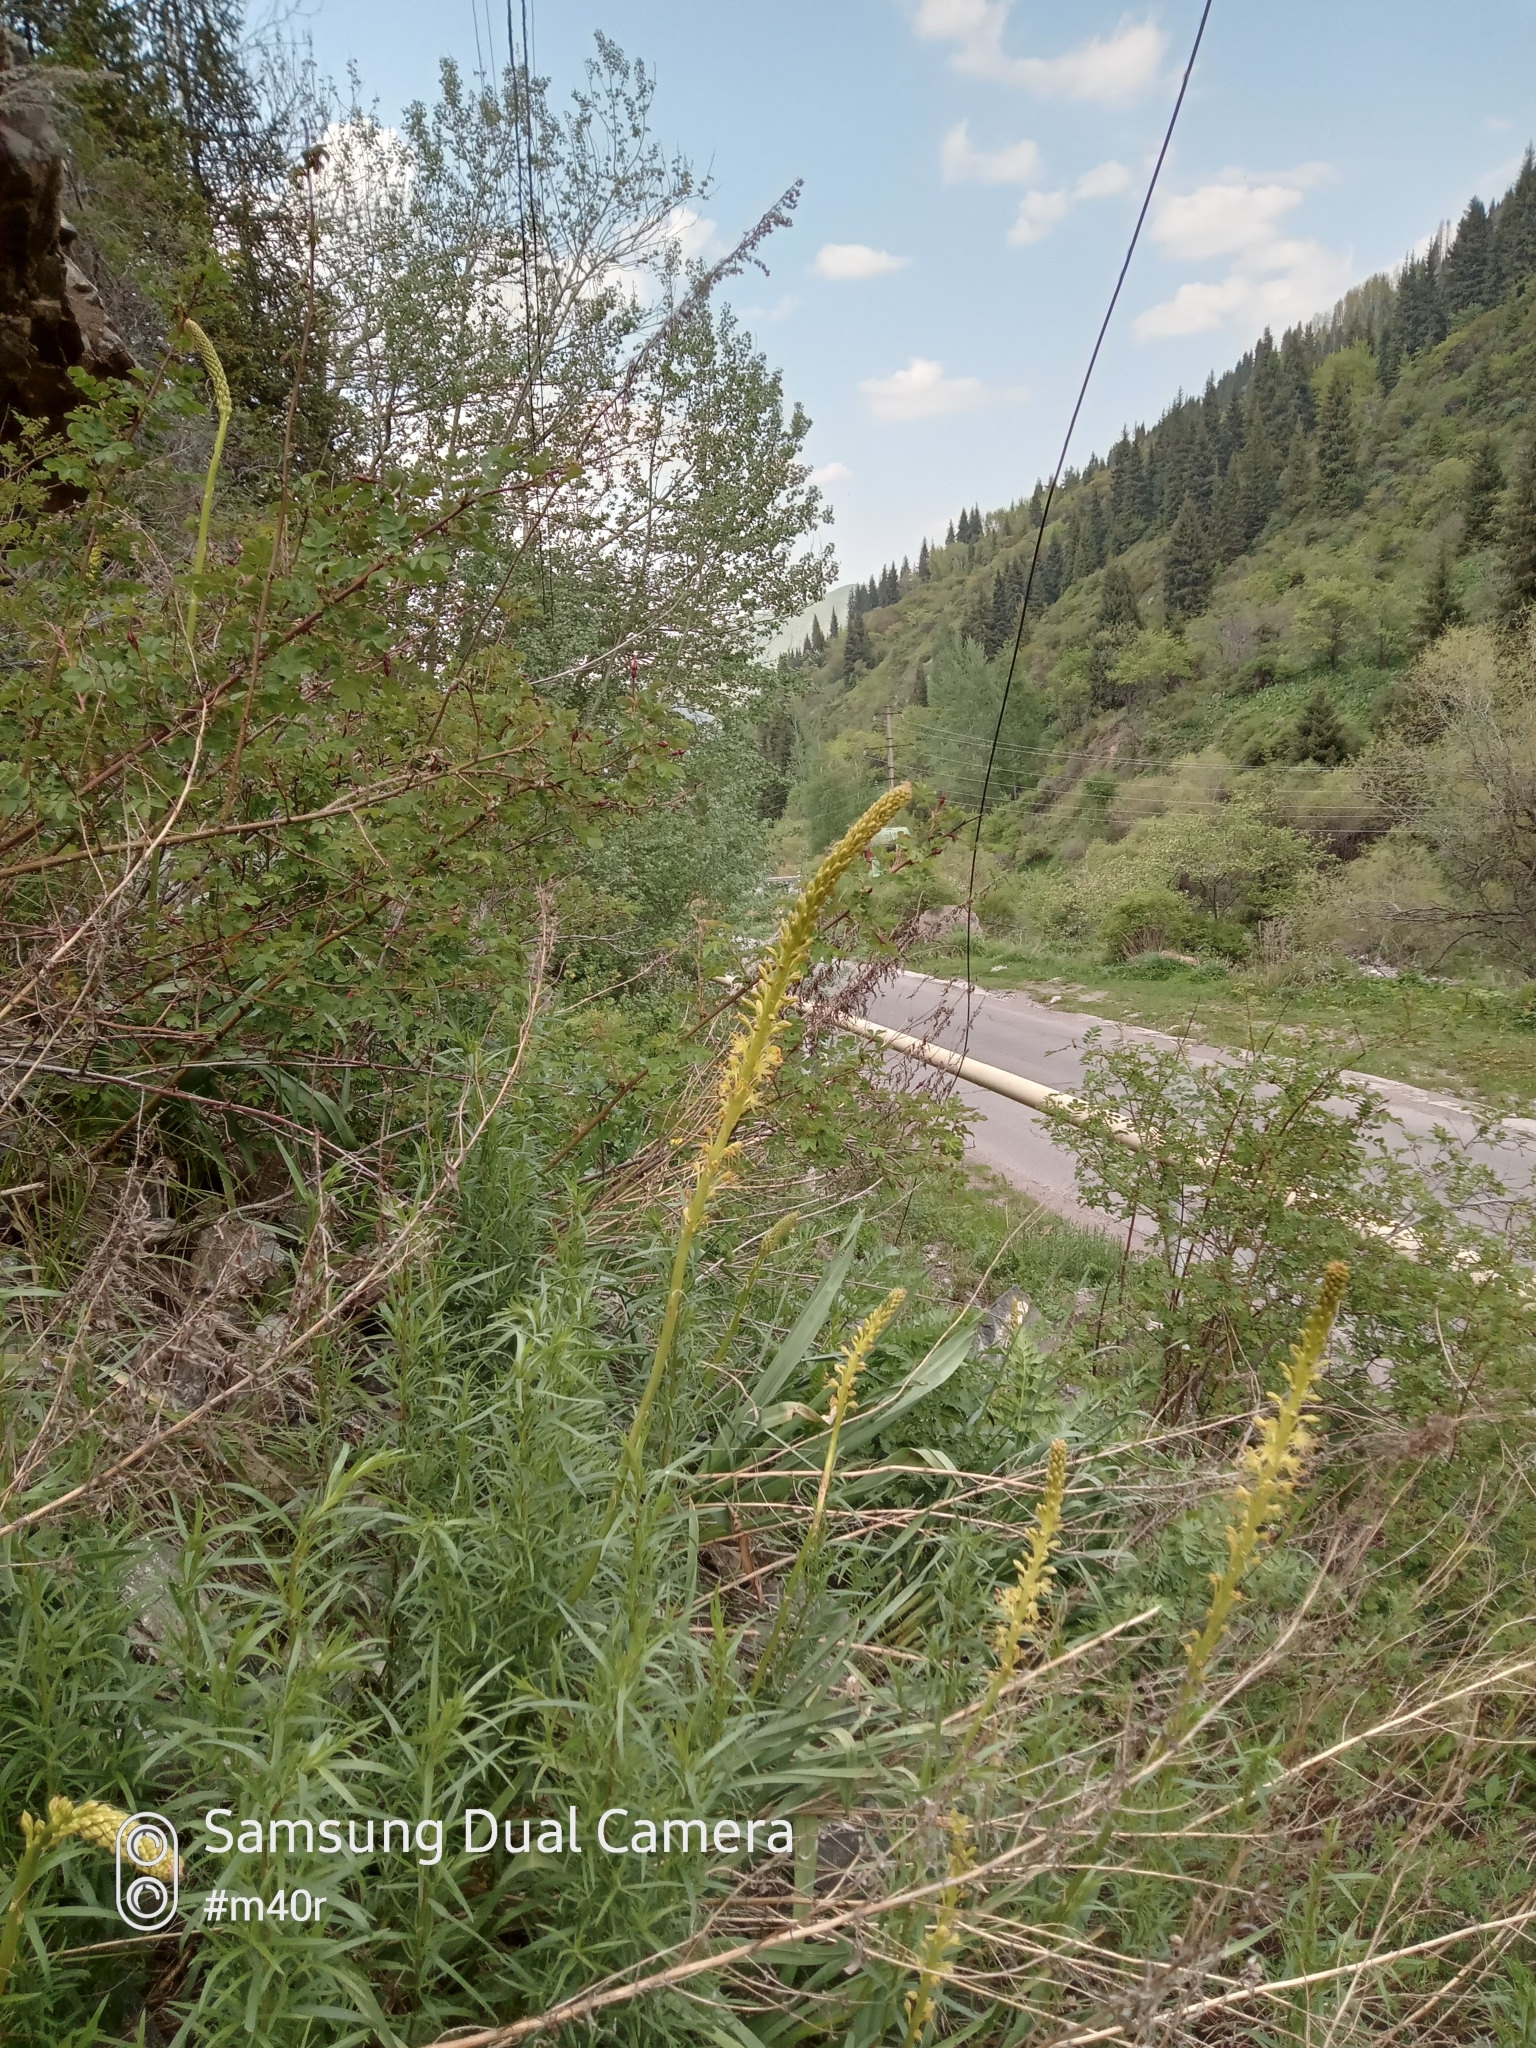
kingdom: Plantae
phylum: Tracheophyta
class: Liliopsida
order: Asparagales
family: Asphodelaceae
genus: Eremurus
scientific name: Eremurus fuscus
